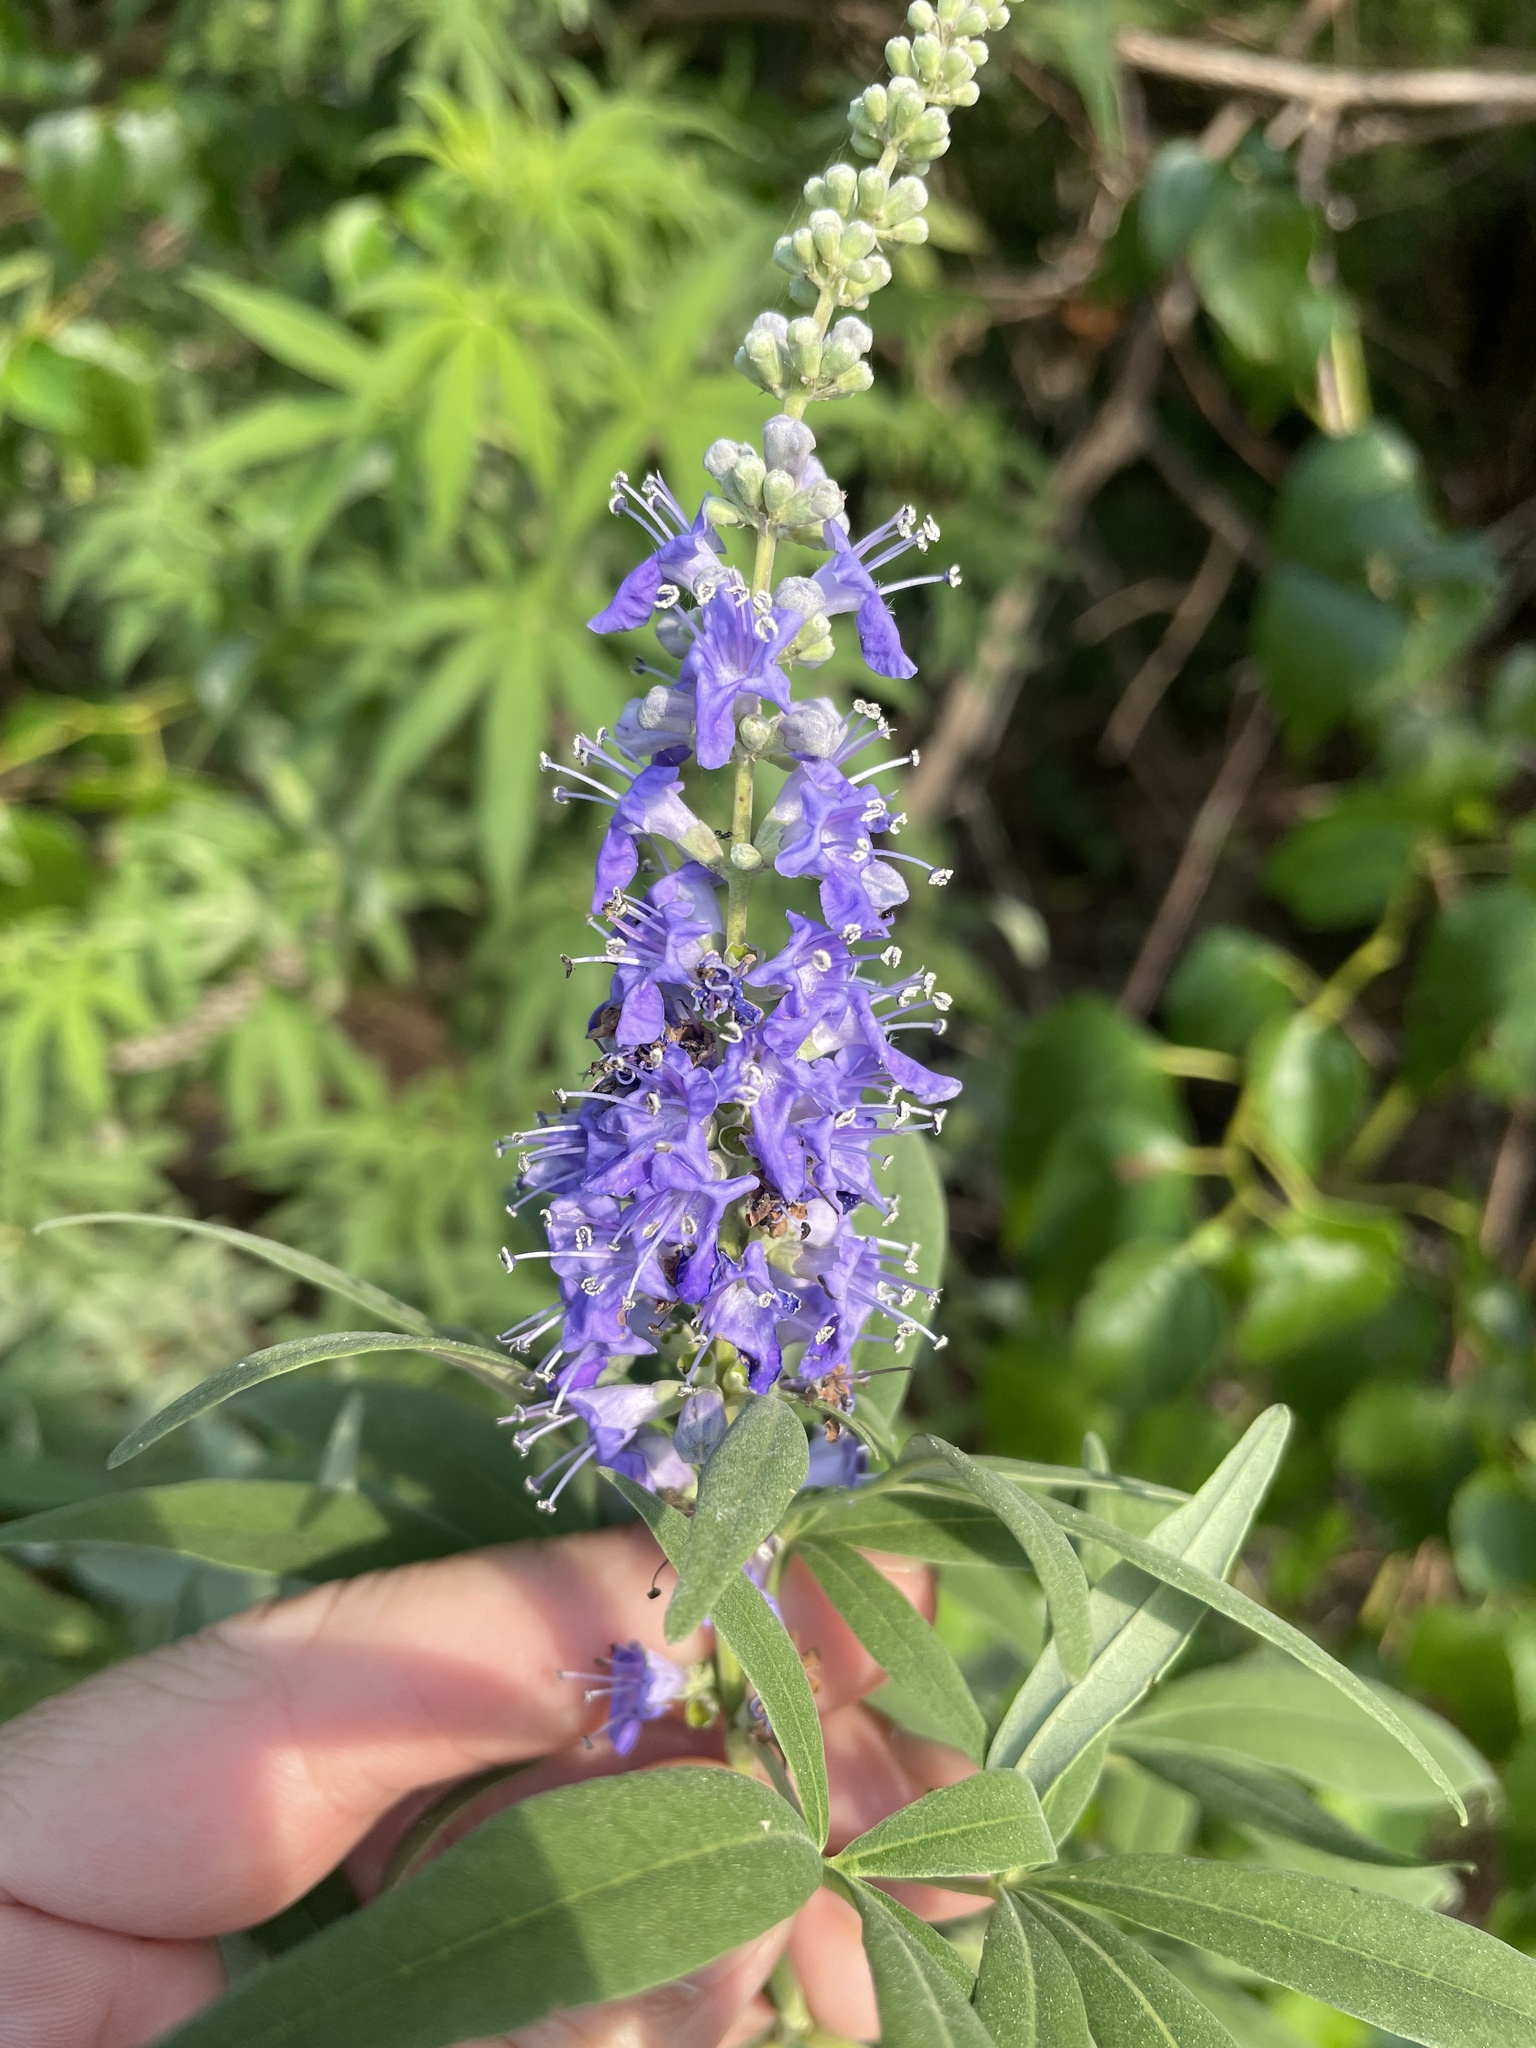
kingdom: Plantae
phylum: Tracheophyta
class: Magnoliopsida
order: Lamiales
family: Lamiaceae
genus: Vitex
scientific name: Vitex agnus-castus
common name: Chasteberry
